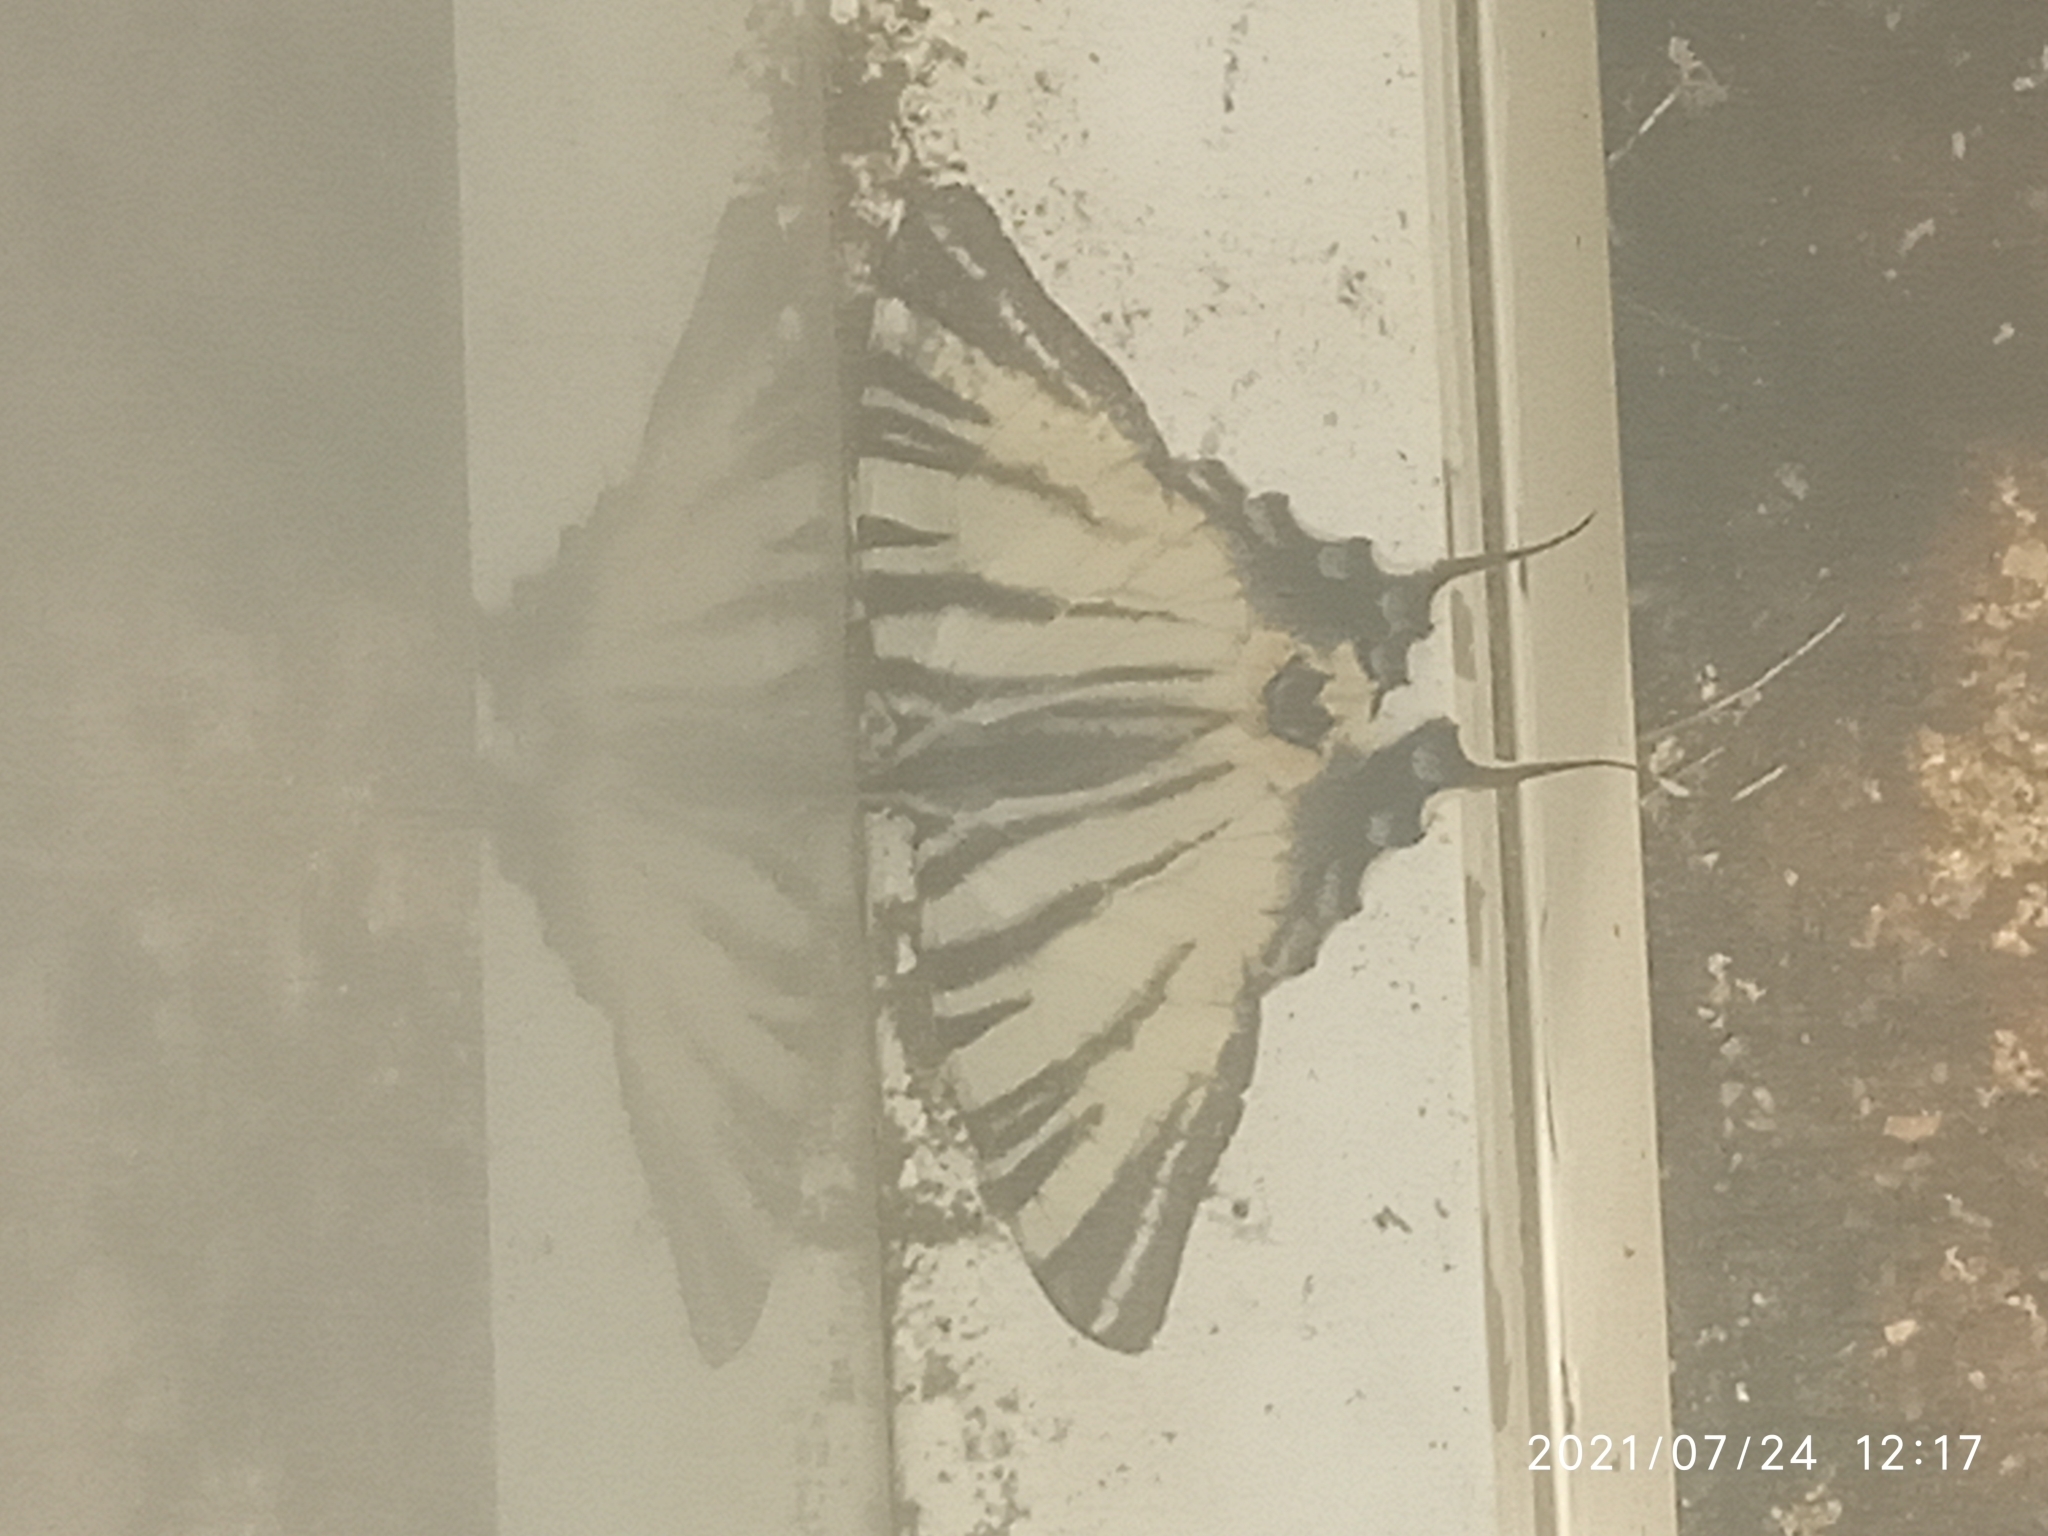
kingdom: Animalia
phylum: Arthropoda
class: Insecta
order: Lepidoptera
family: Papilionidae
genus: Iphiclides
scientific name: Iphiclides podalirius
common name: Scarce swallowtail
